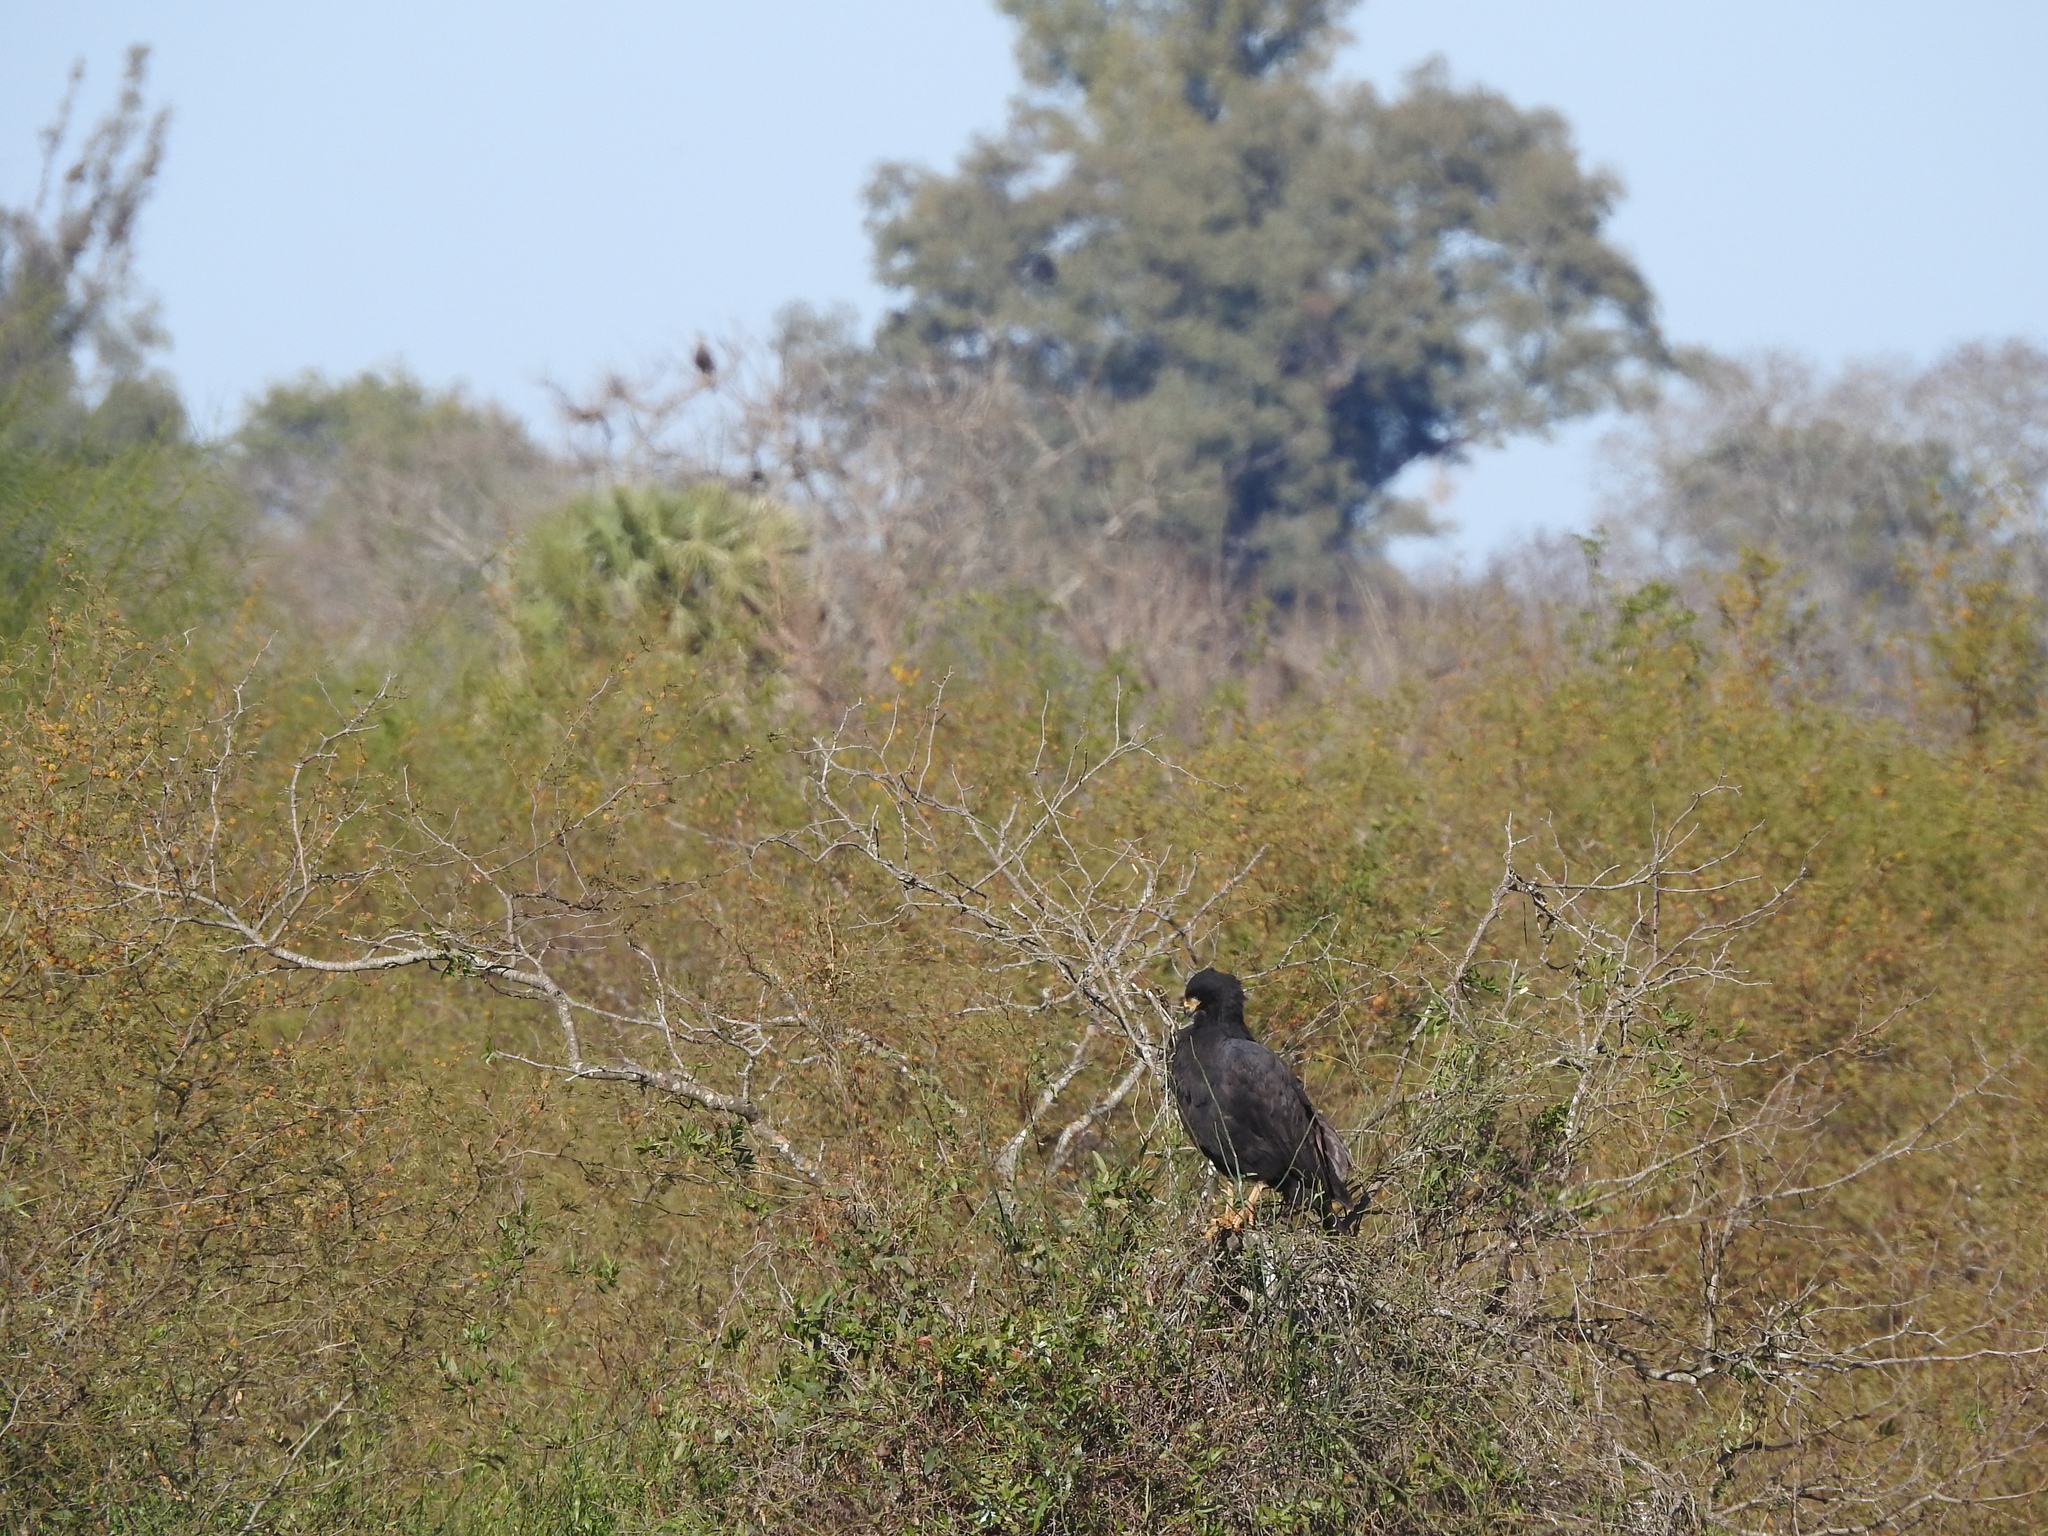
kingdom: Animalia
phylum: Chordata
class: Aves
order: Accipitriformes
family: Accipitridae
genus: Buteogallus
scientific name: Buteogallus urubitinga
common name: Great black hawk
